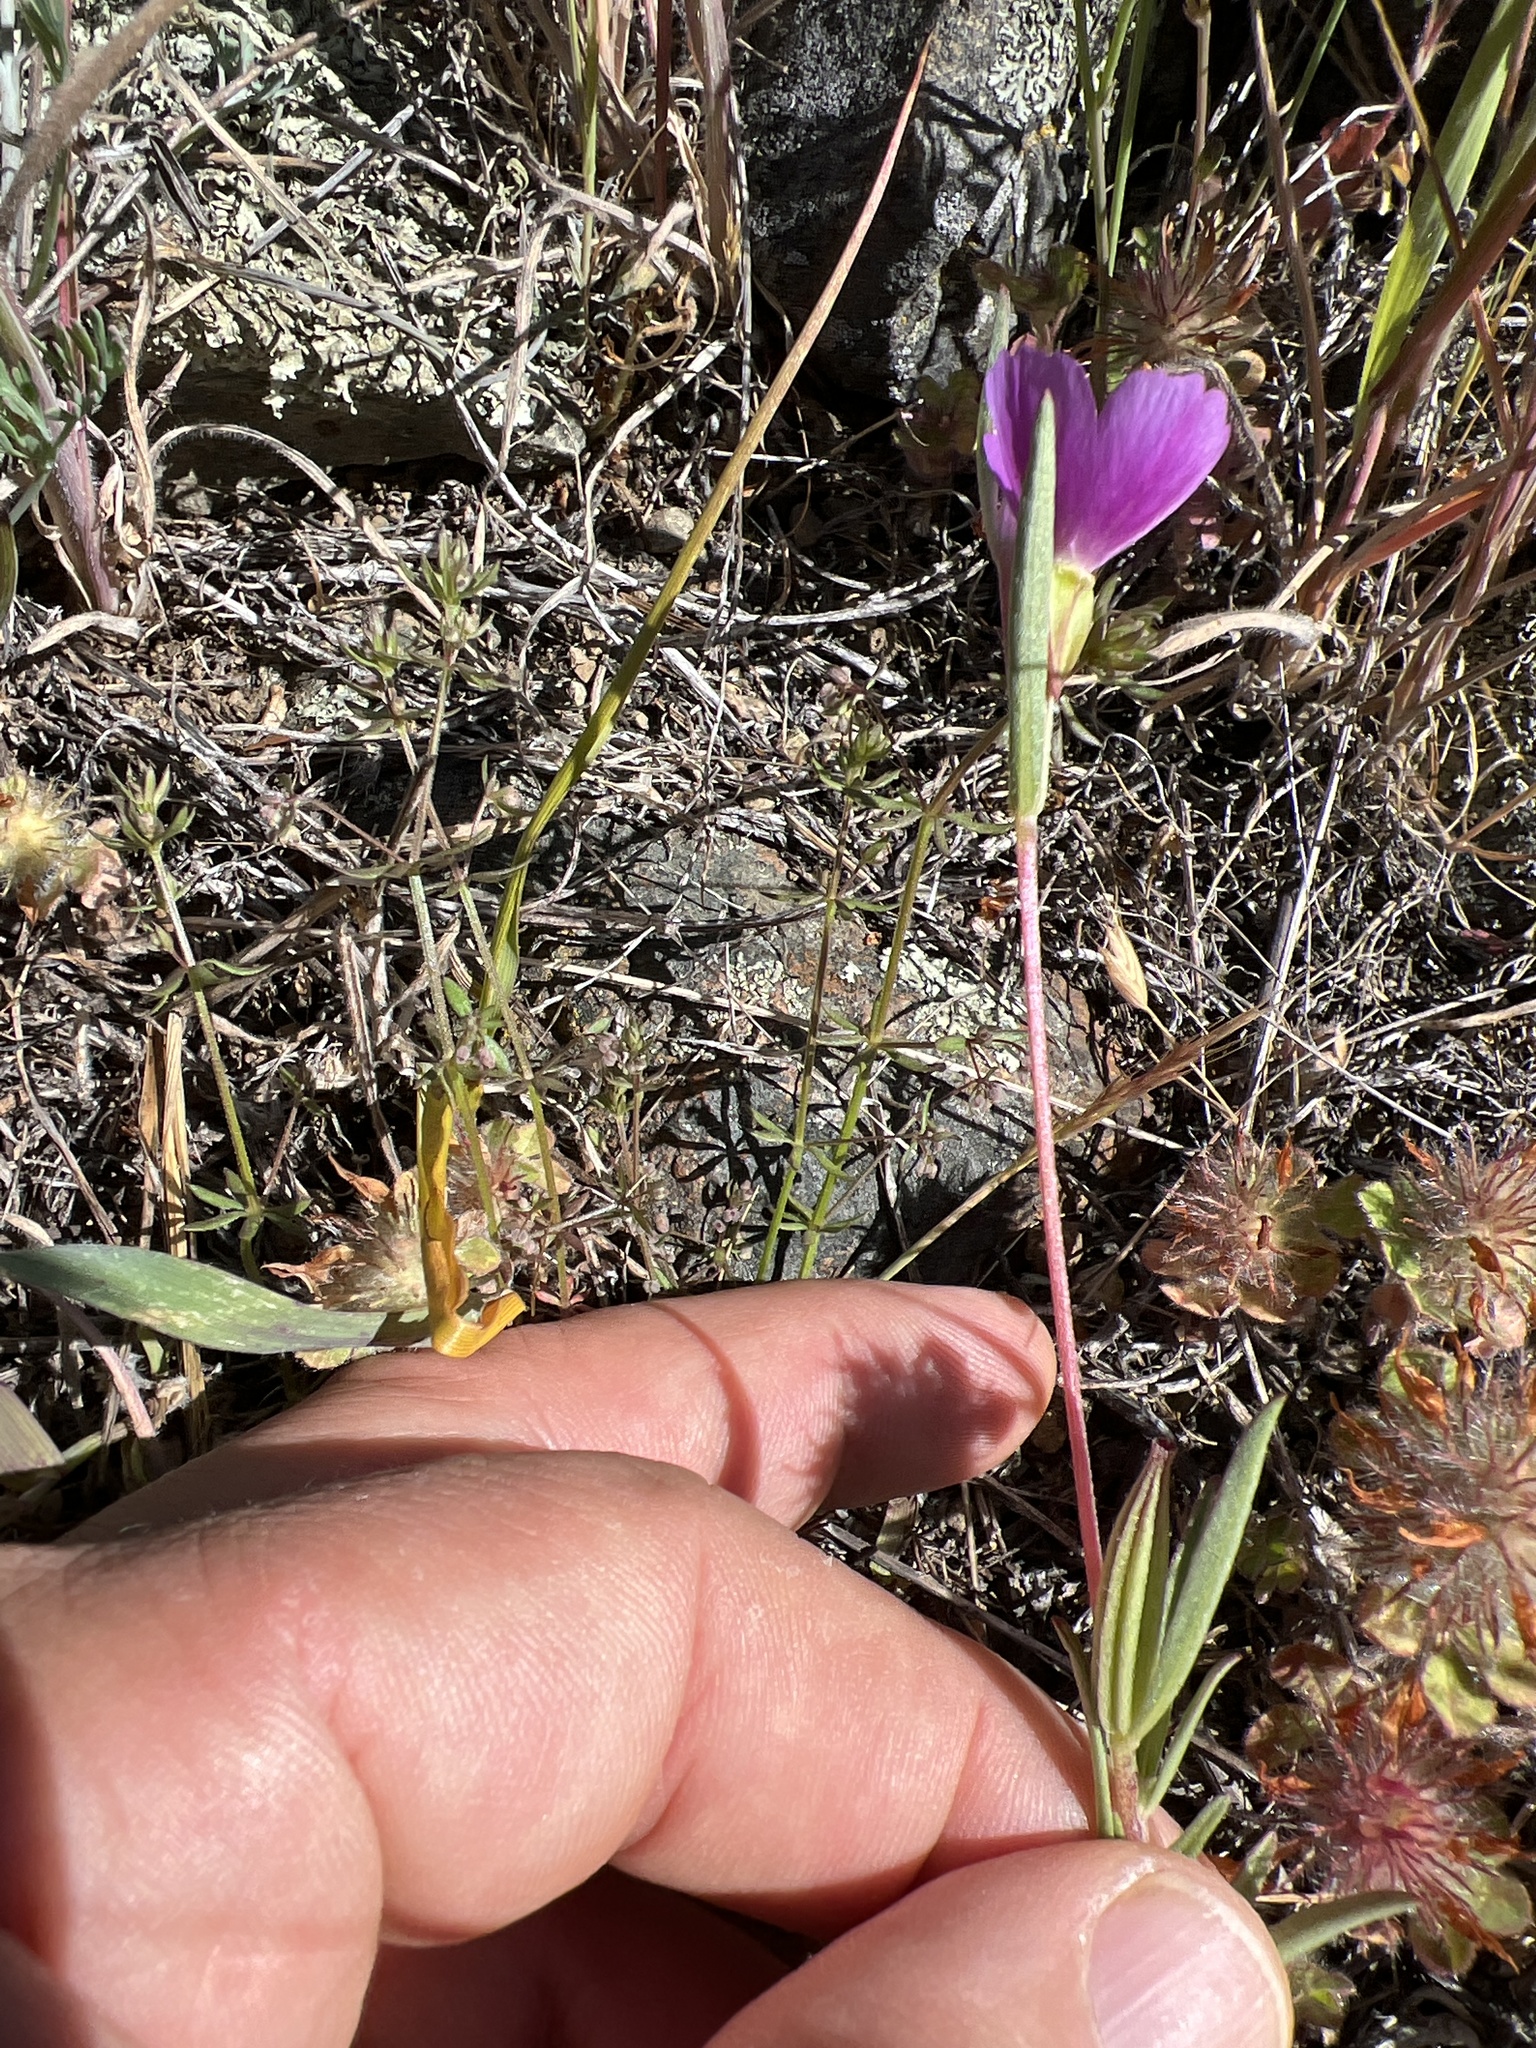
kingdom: Plantae
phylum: Tracheophyta
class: Magnoliopsida
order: Myrtales
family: Onagraceae
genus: Clarkia
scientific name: Clarkia purpurea
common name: Purple clarkia
